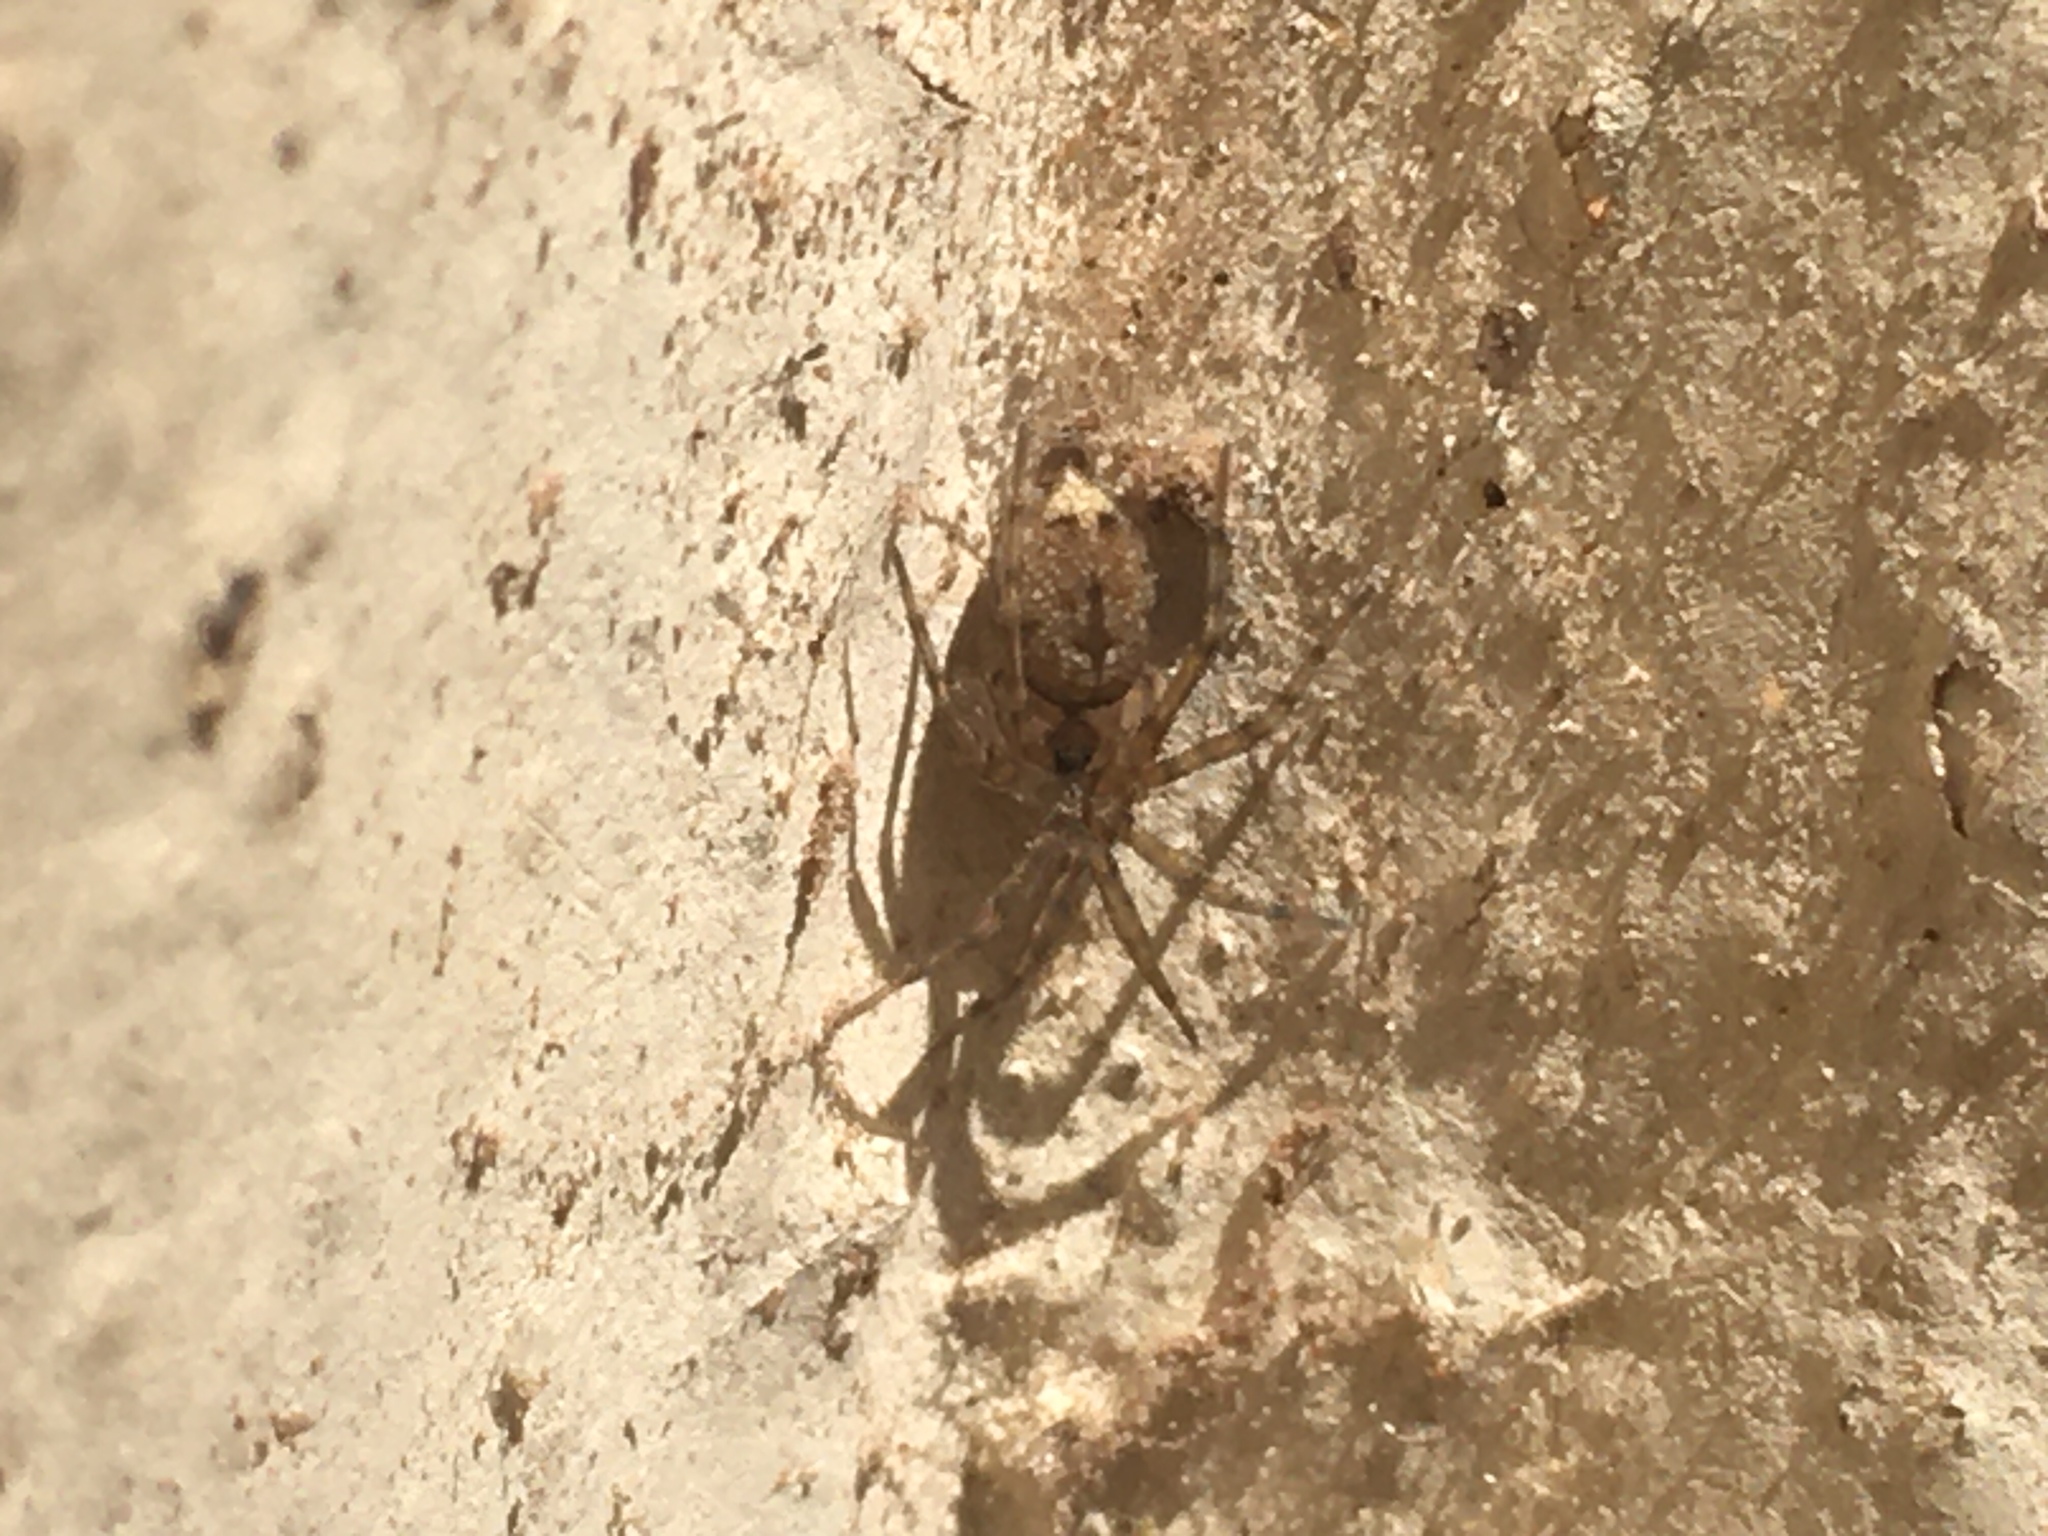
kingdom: Animalia
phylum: Arthropoda
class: Arachnida
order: Araneae
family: Oecobiidae
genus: Oecobius
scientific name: Oecobius navus
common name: Flatmesh weaver
